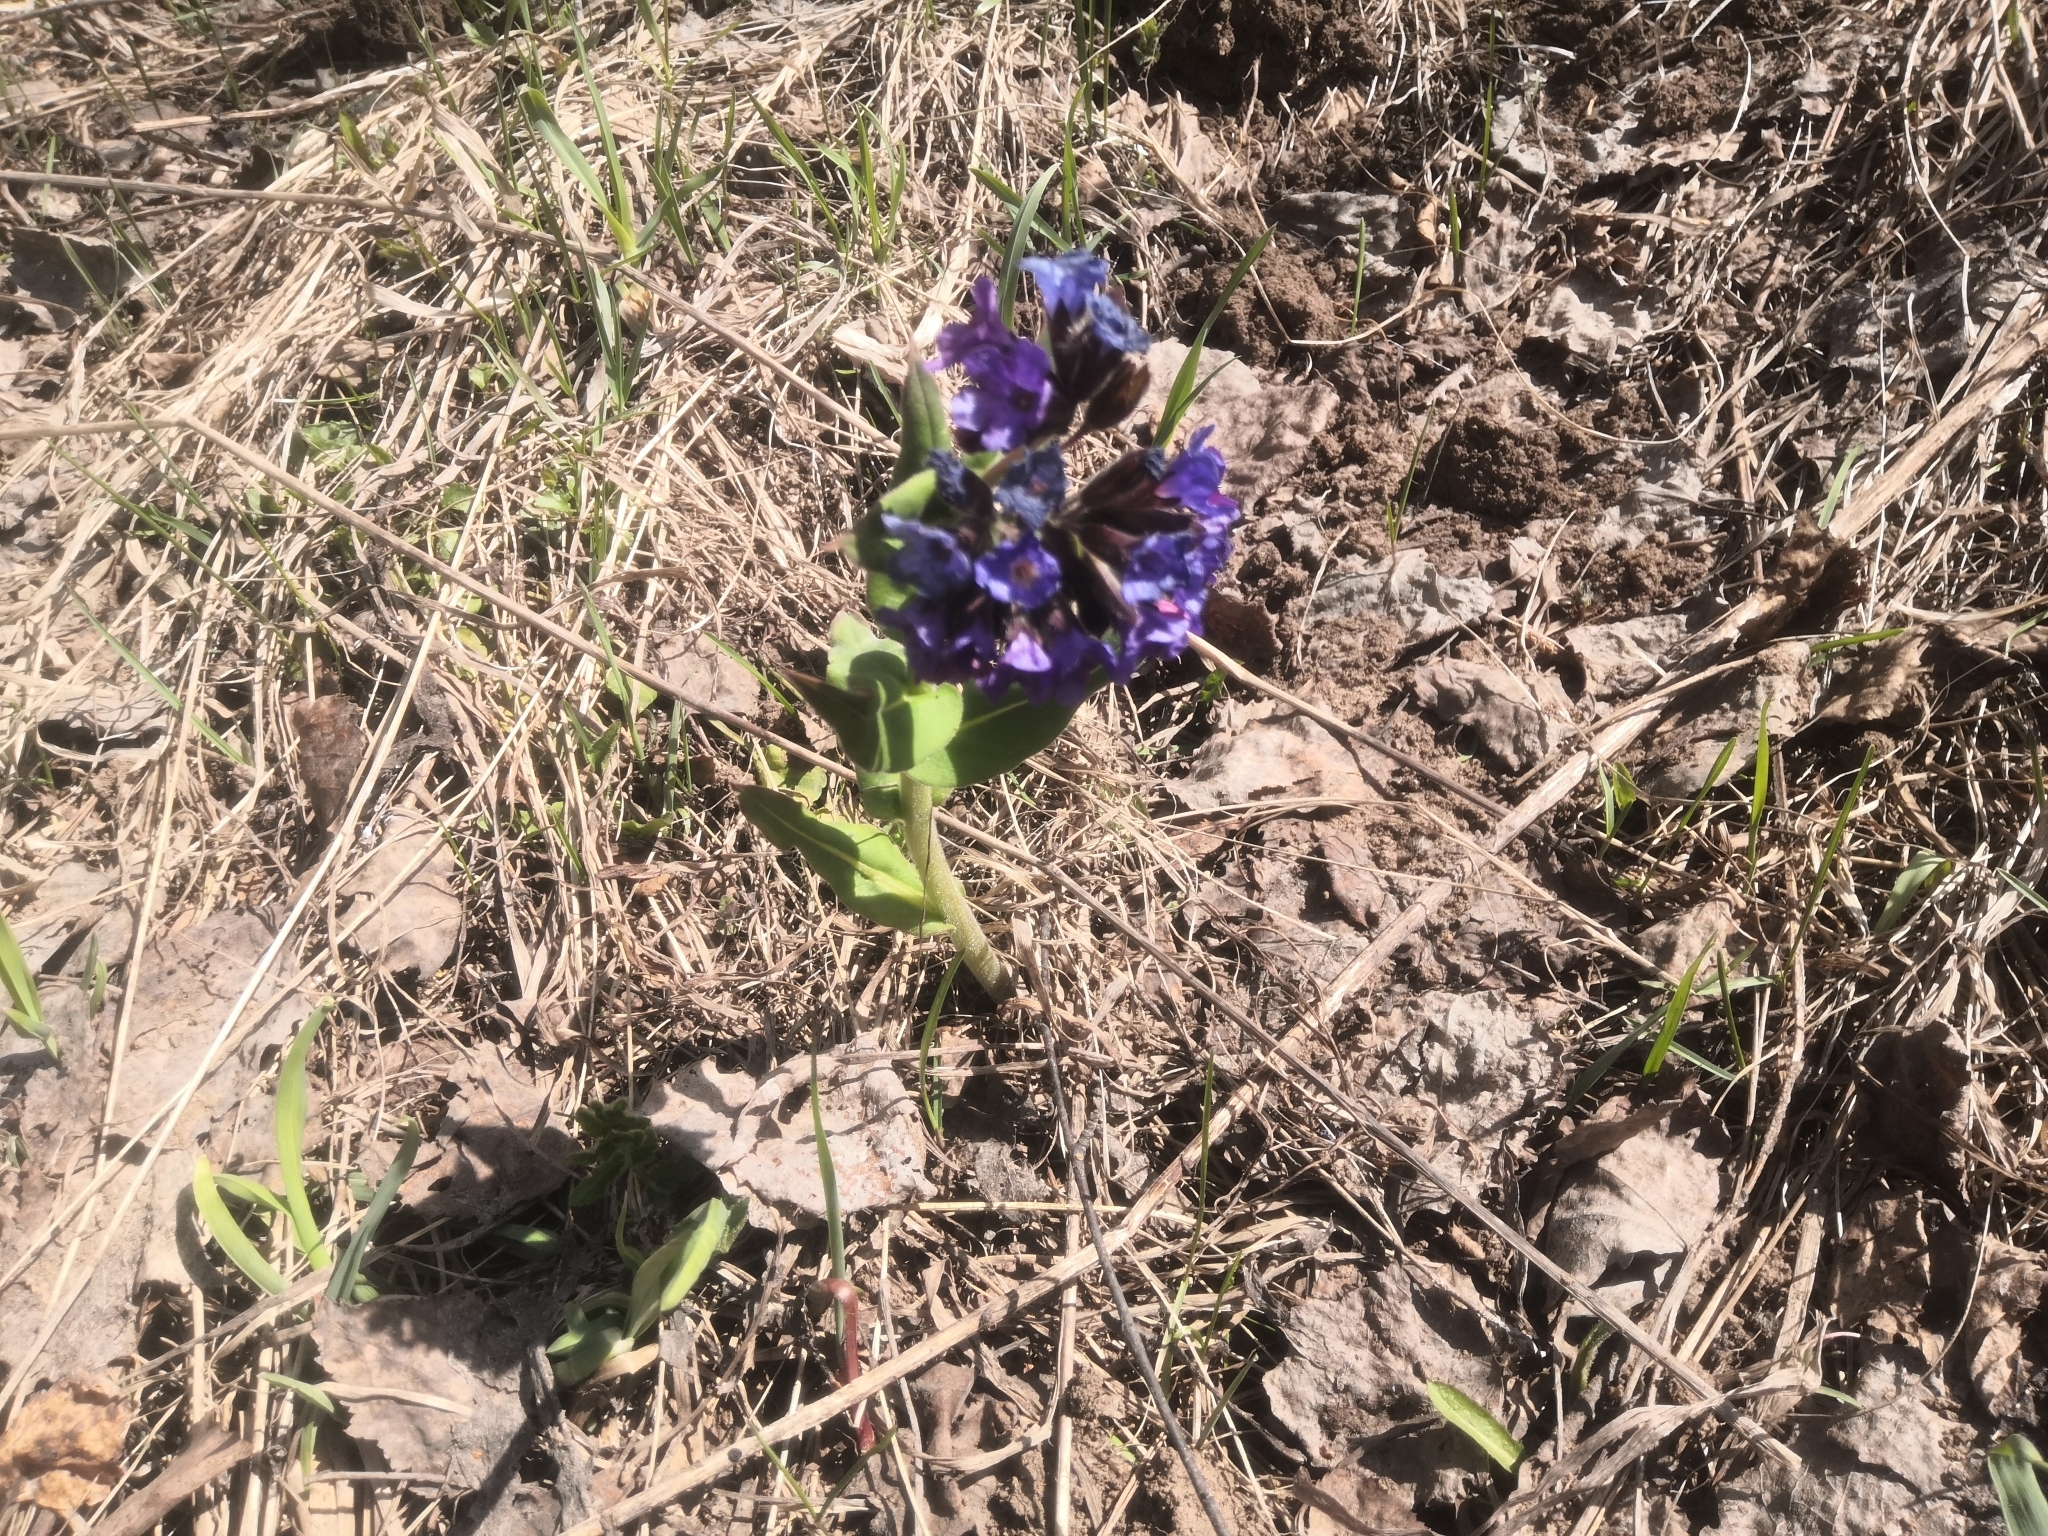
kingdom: Plantae
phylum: Tracheophyta
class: Magnoliopsida
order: Boraginales
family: Boraginaceae
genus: Pulmonaria
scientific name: Pulmonaria mollis
